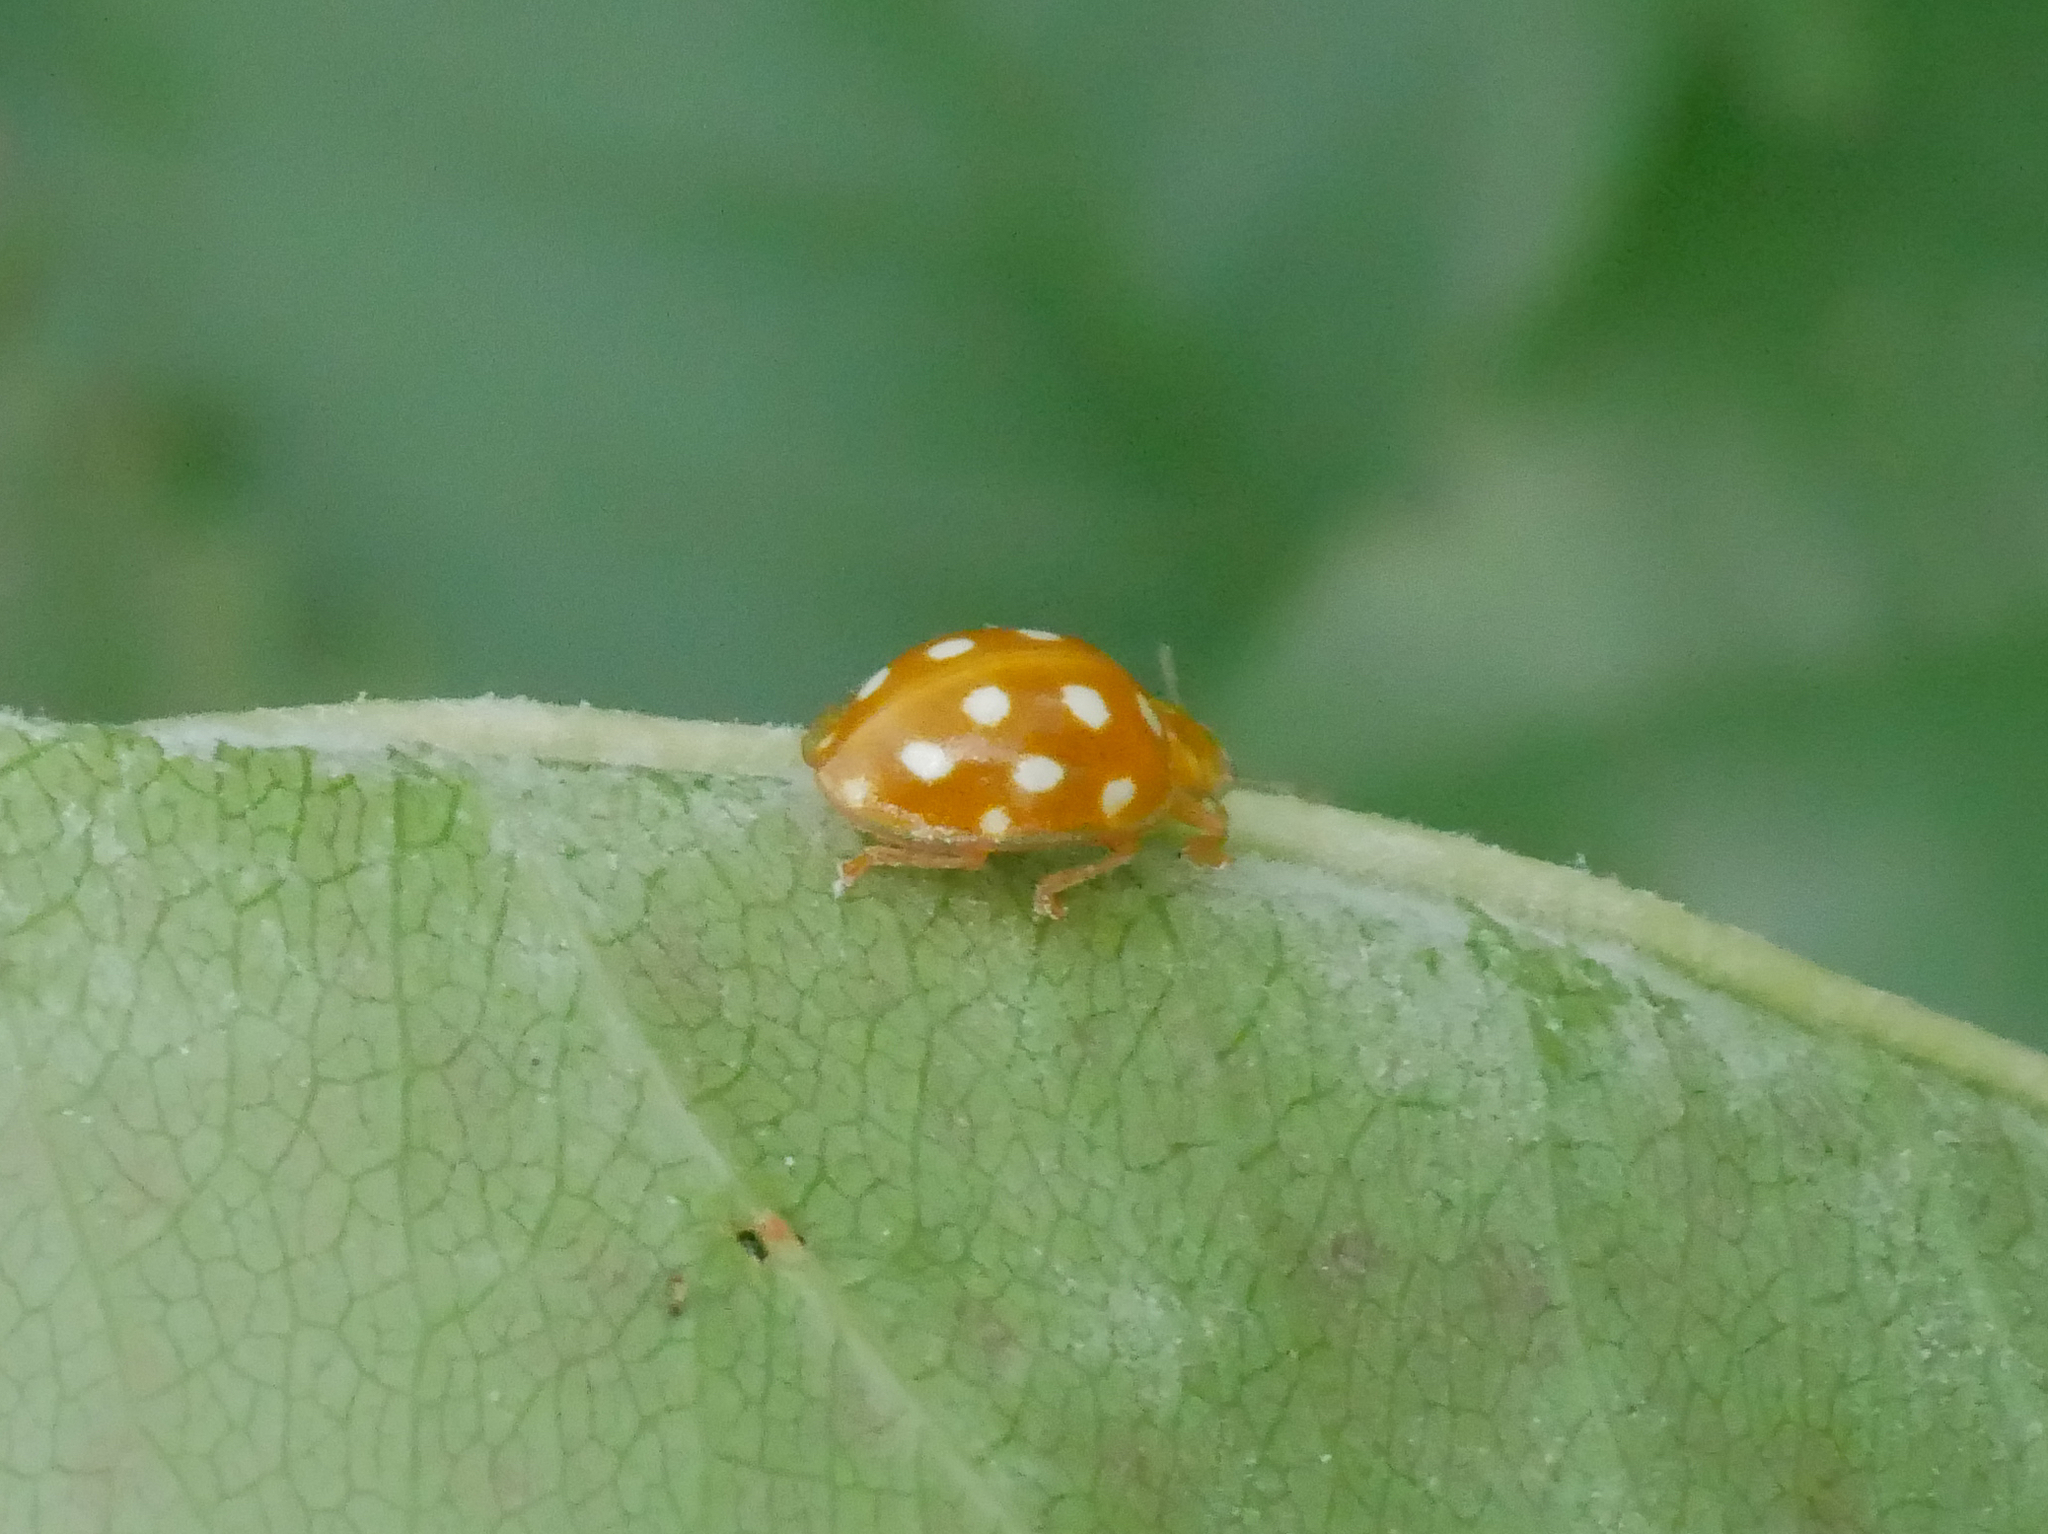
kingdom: Animalia
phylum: Arthropoda
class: Insecta
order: Coleoptera
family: Coccinellidae
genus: Halyzia
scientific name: Halyzia sedecimguttata
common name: Orange ladybird
